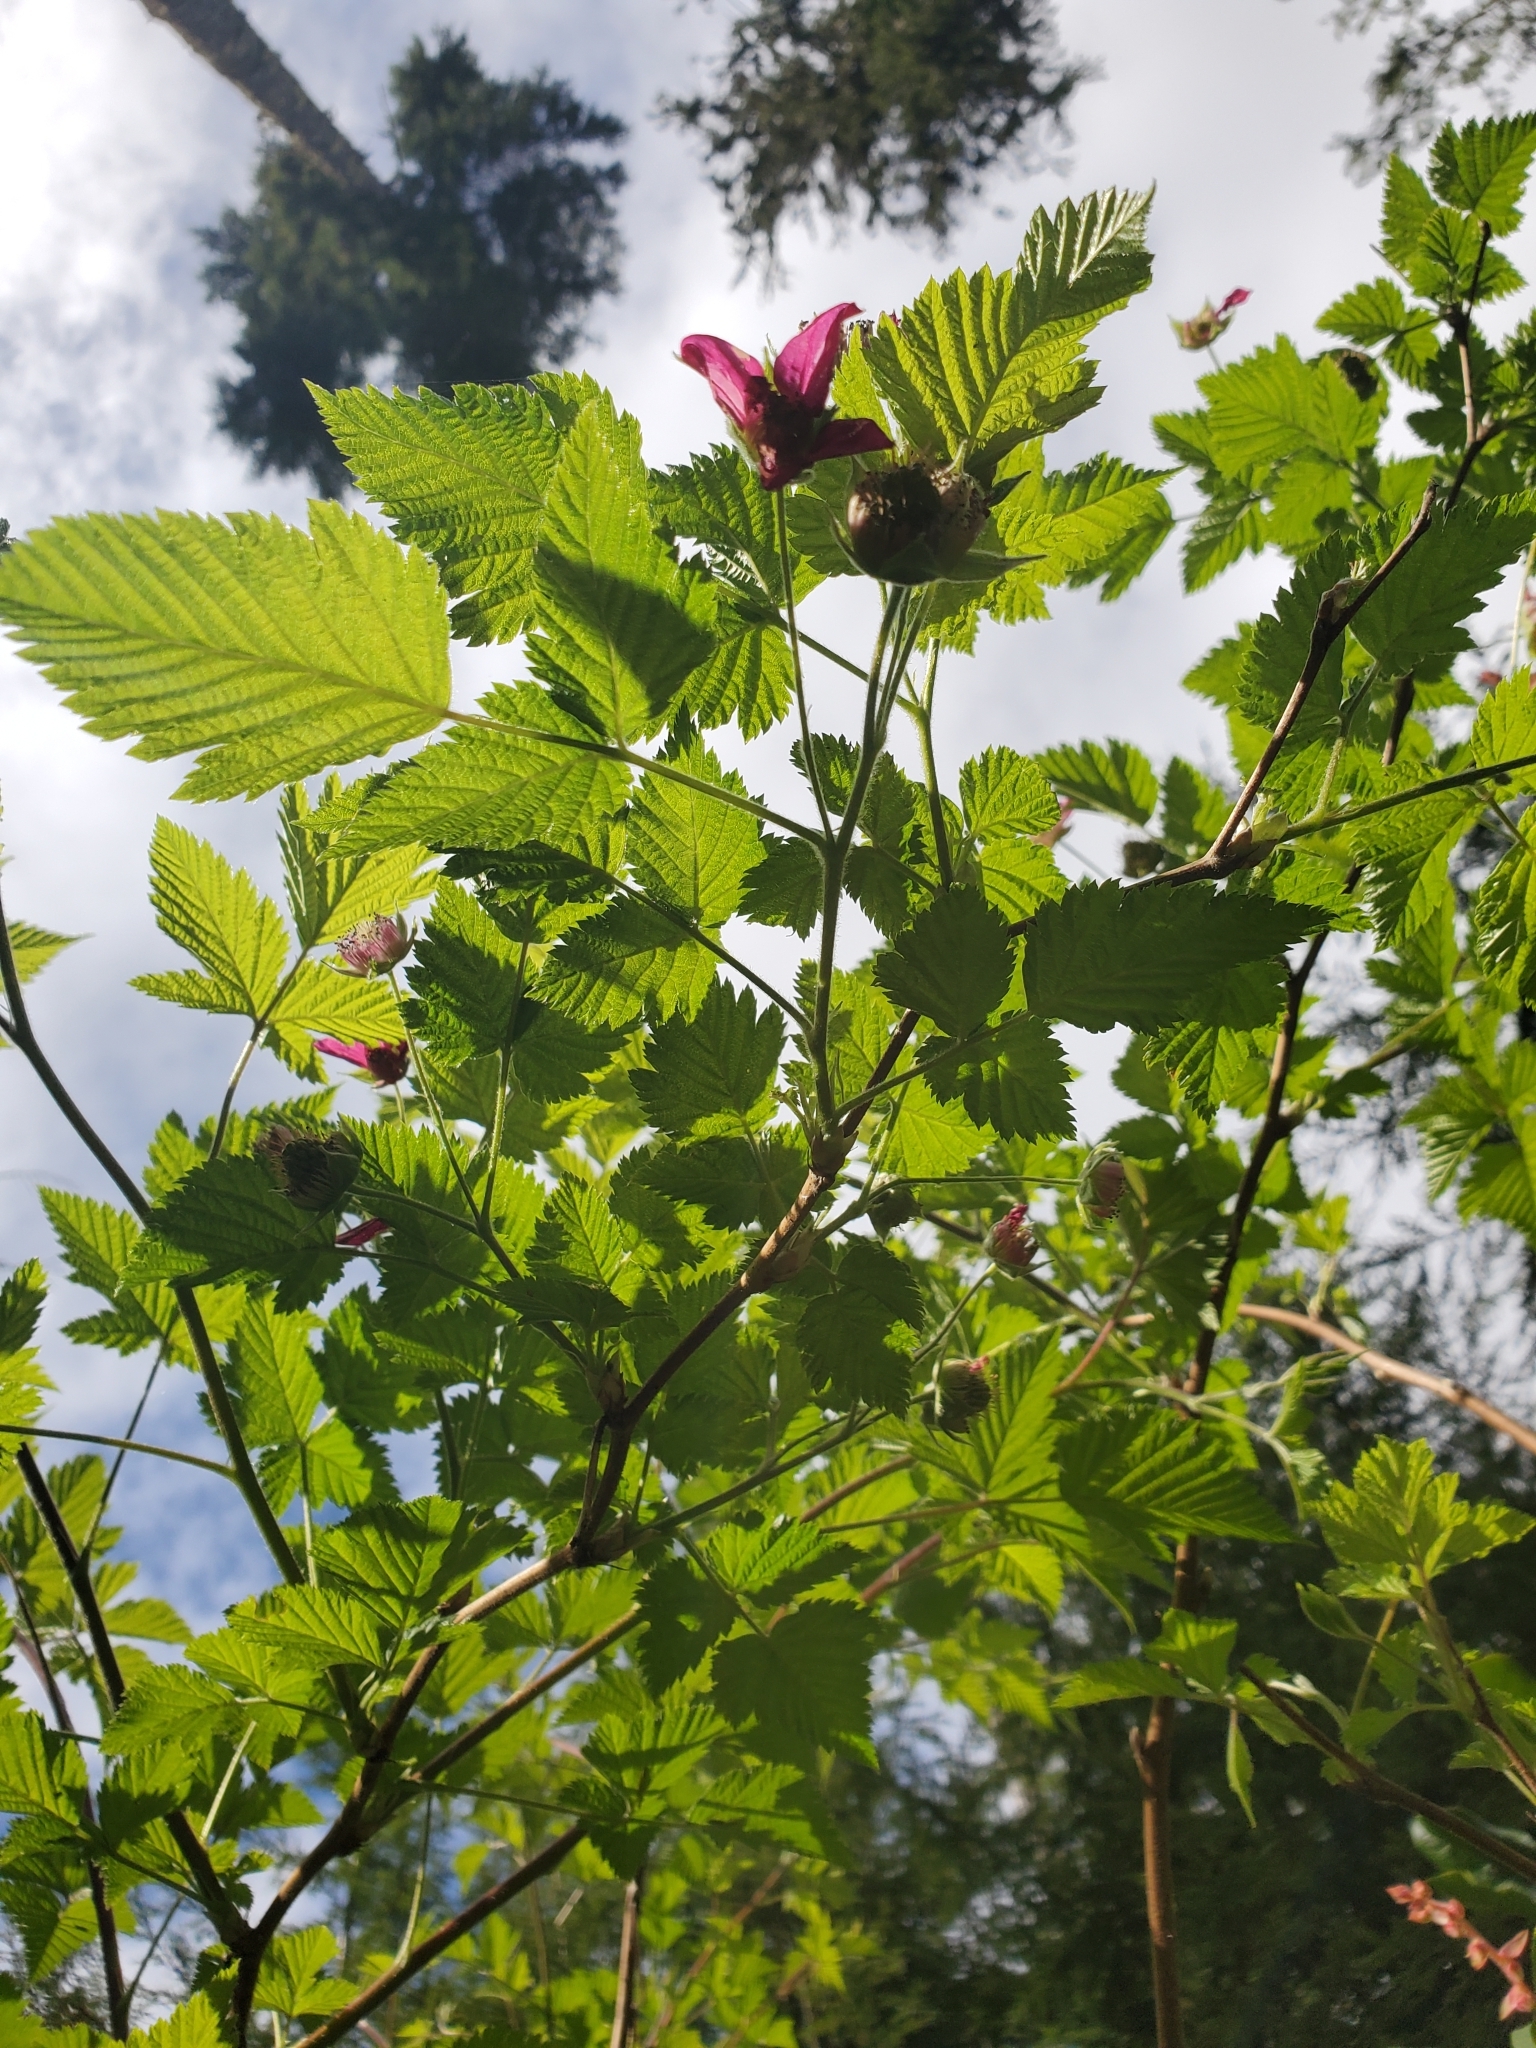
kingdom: Plantae
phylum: Tracheophyta
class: Magnoliopsida
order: Rosales
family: Rosaceae
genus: Rubus
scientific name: Rubus spectabilis
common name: Salmonberry
